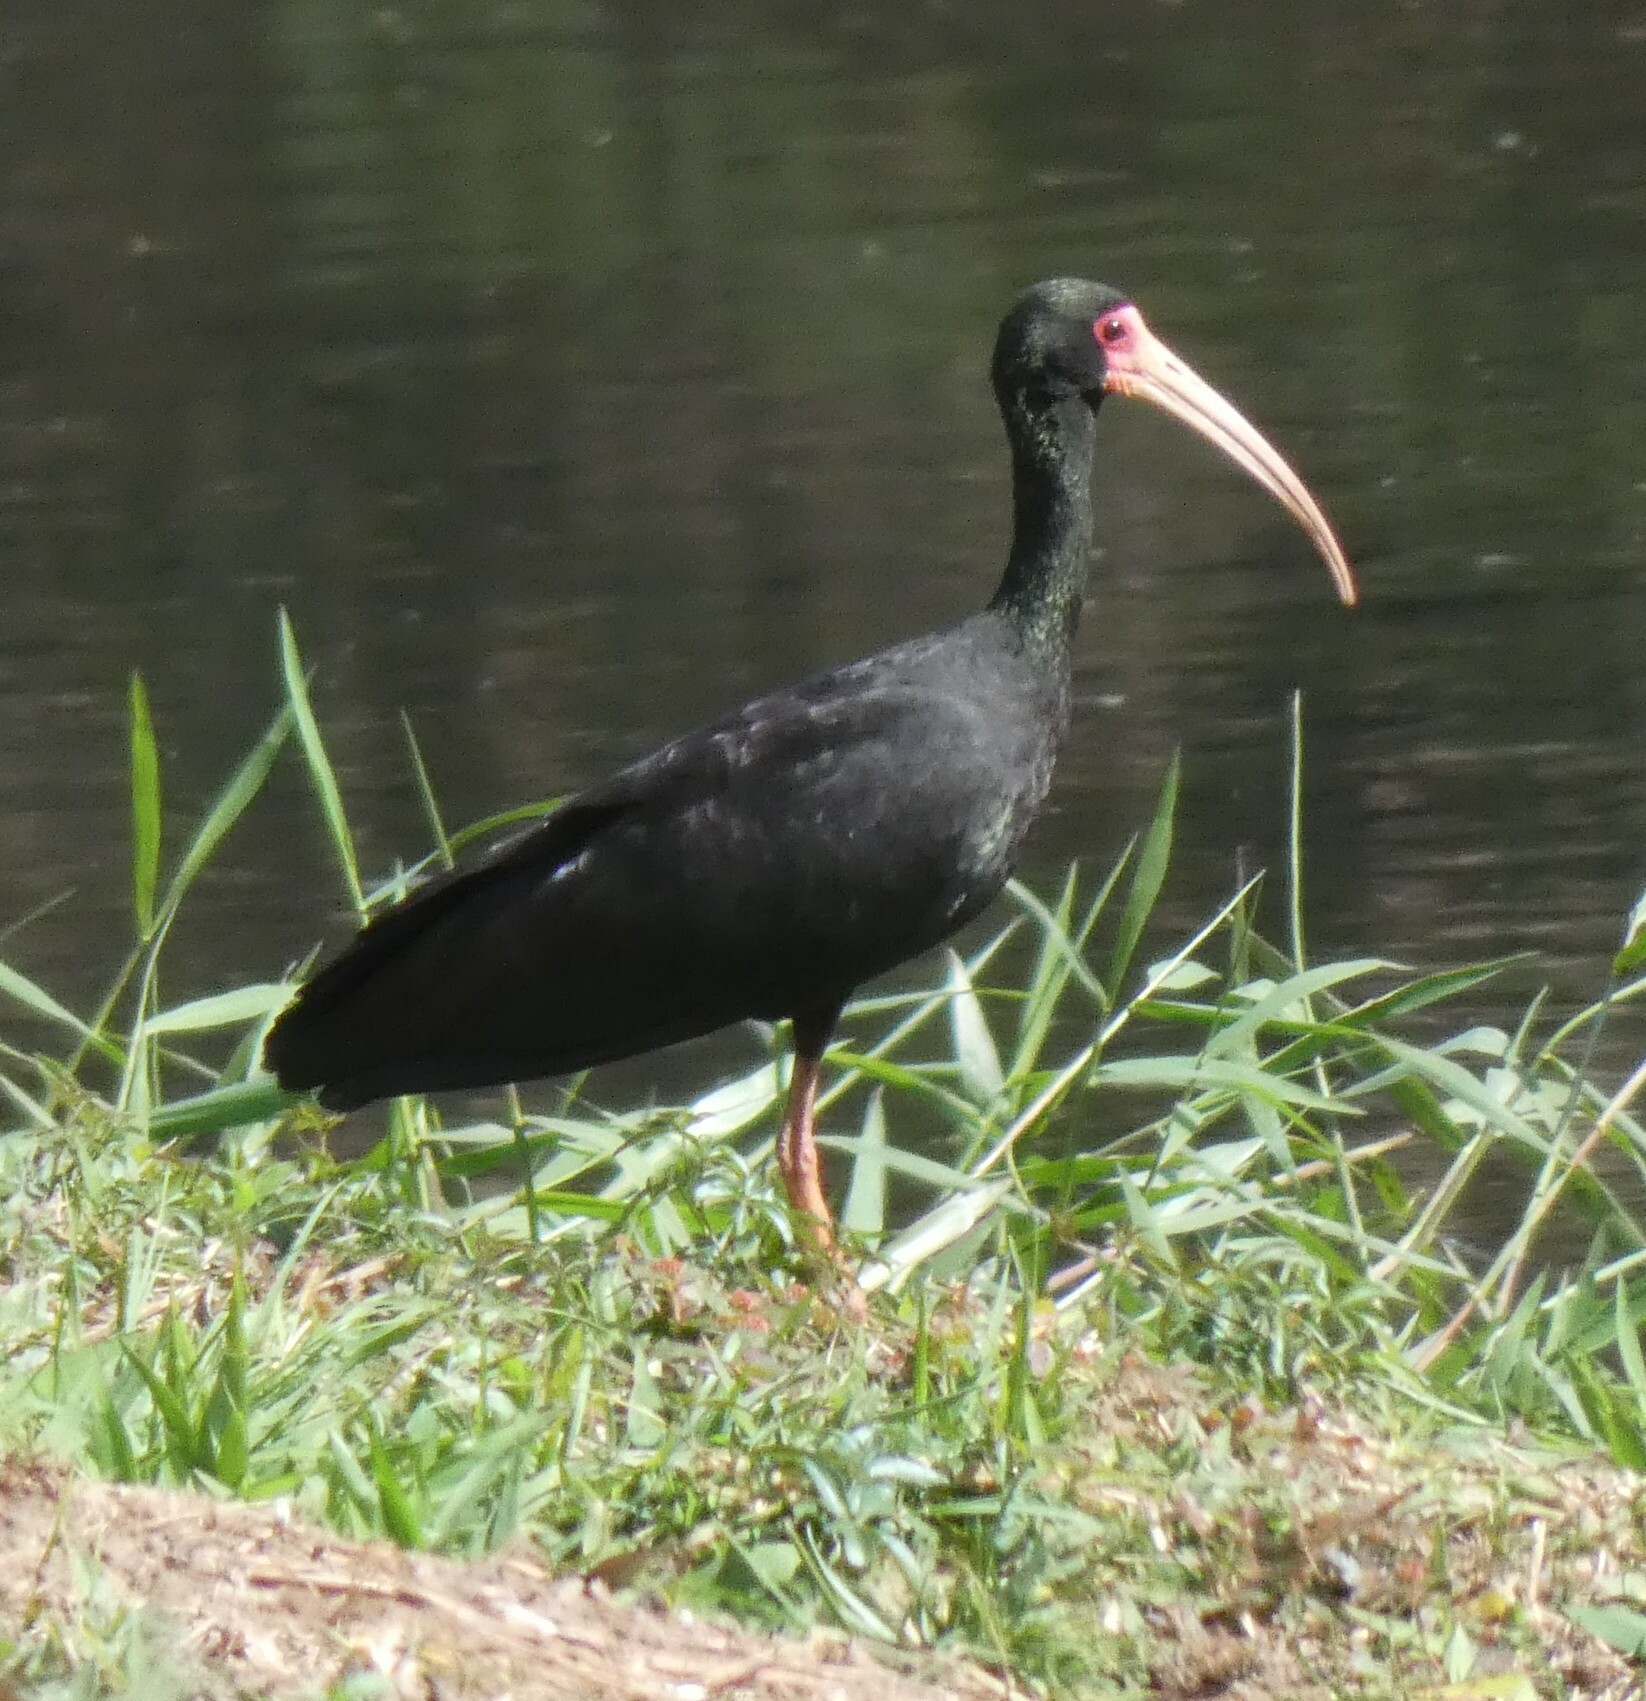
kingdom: Animalia
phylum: Chordata
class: Aves
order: Pelecaniformes
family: Threskiornithidae
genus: Phimosus
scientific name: Phimosus infuscatus
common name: Bare-faced ibis
